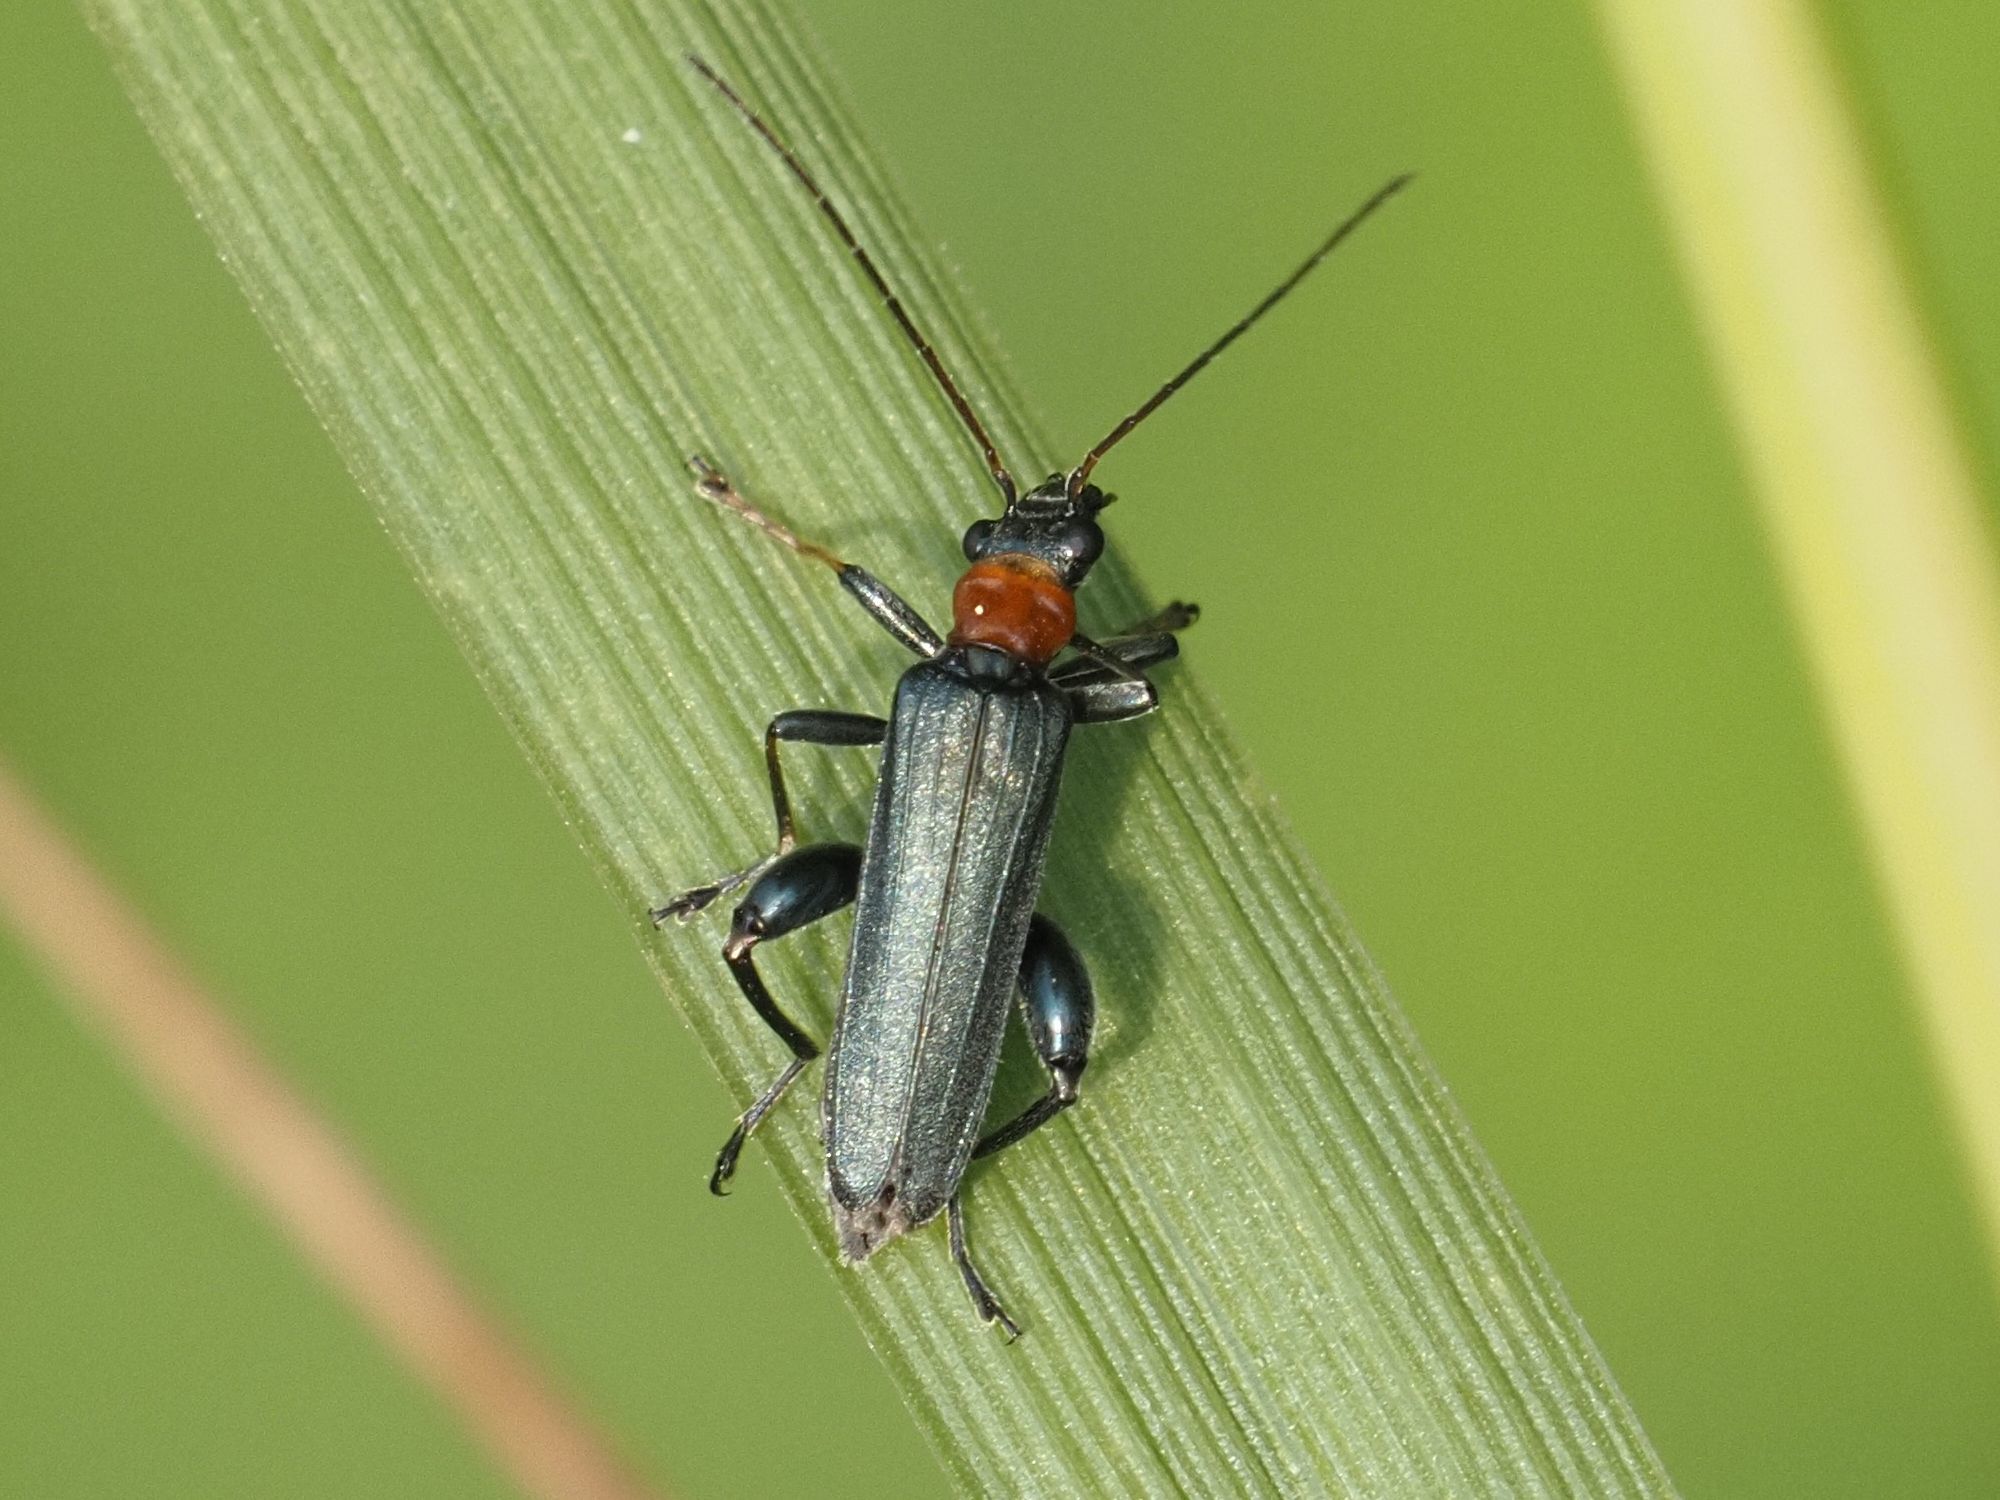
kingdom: Animalia
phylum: Arthropoda
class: Insecta
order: Coleoptera
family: Oedemeridae
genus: Oedemera
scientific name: Oedemera croceicollis
